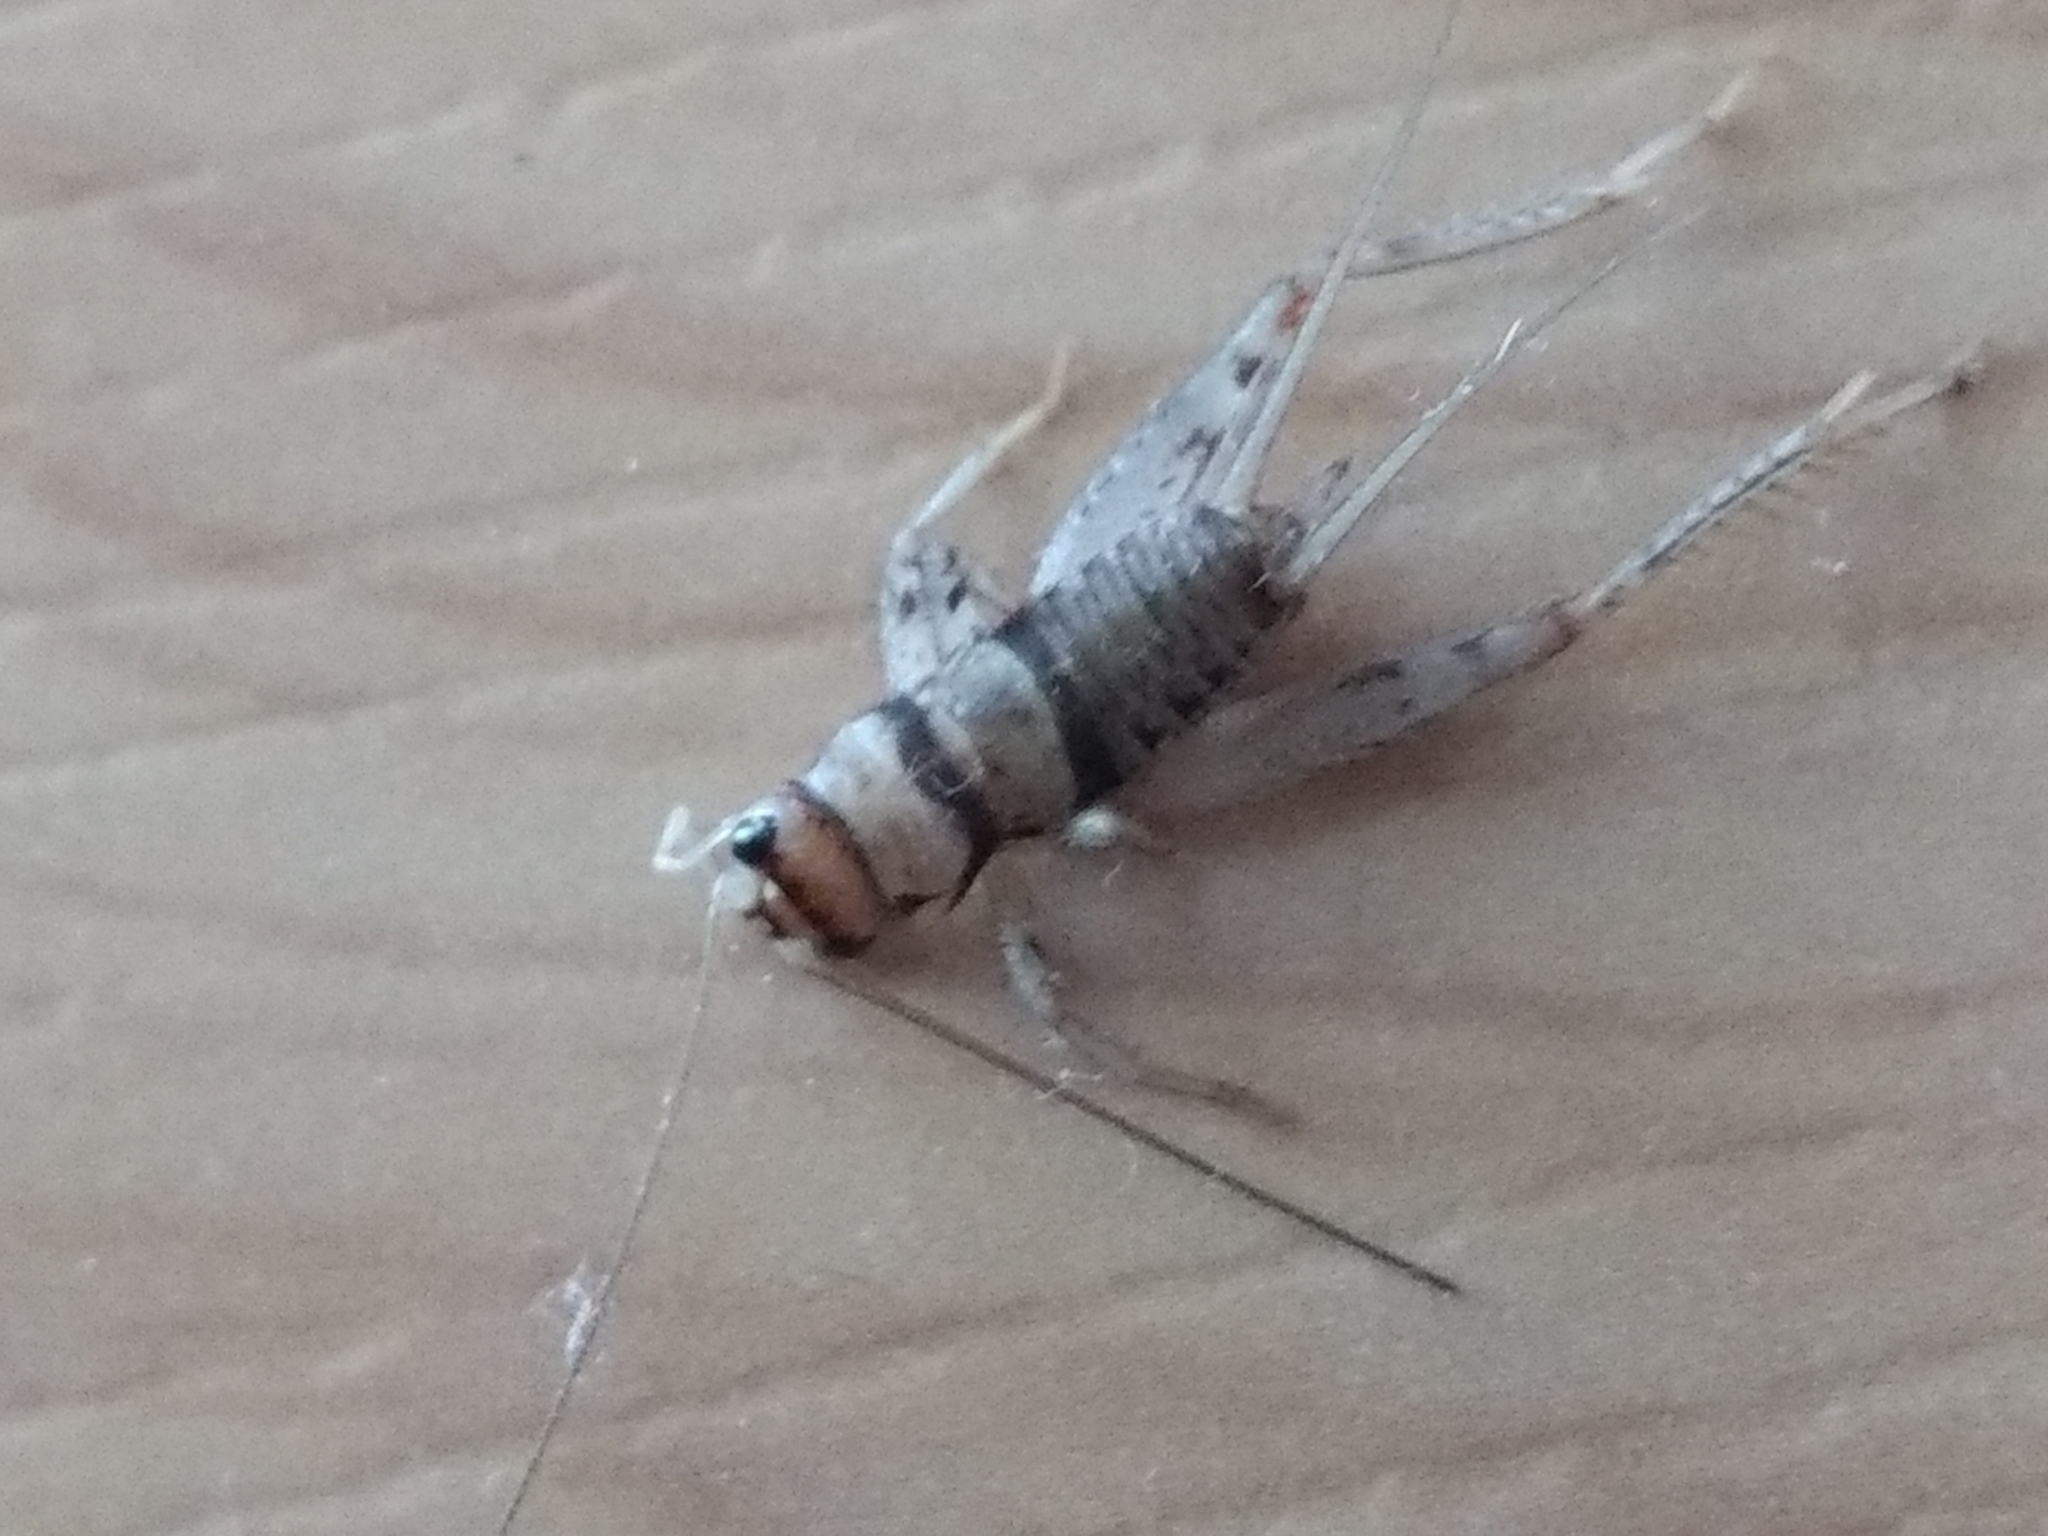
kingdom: Animalia
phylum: Arthropoda
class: Insecta
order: Orthoptera
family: Gryllidae
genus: Gryllodes
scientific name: Gryllodes sigillatus
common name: Tropical house cricket
